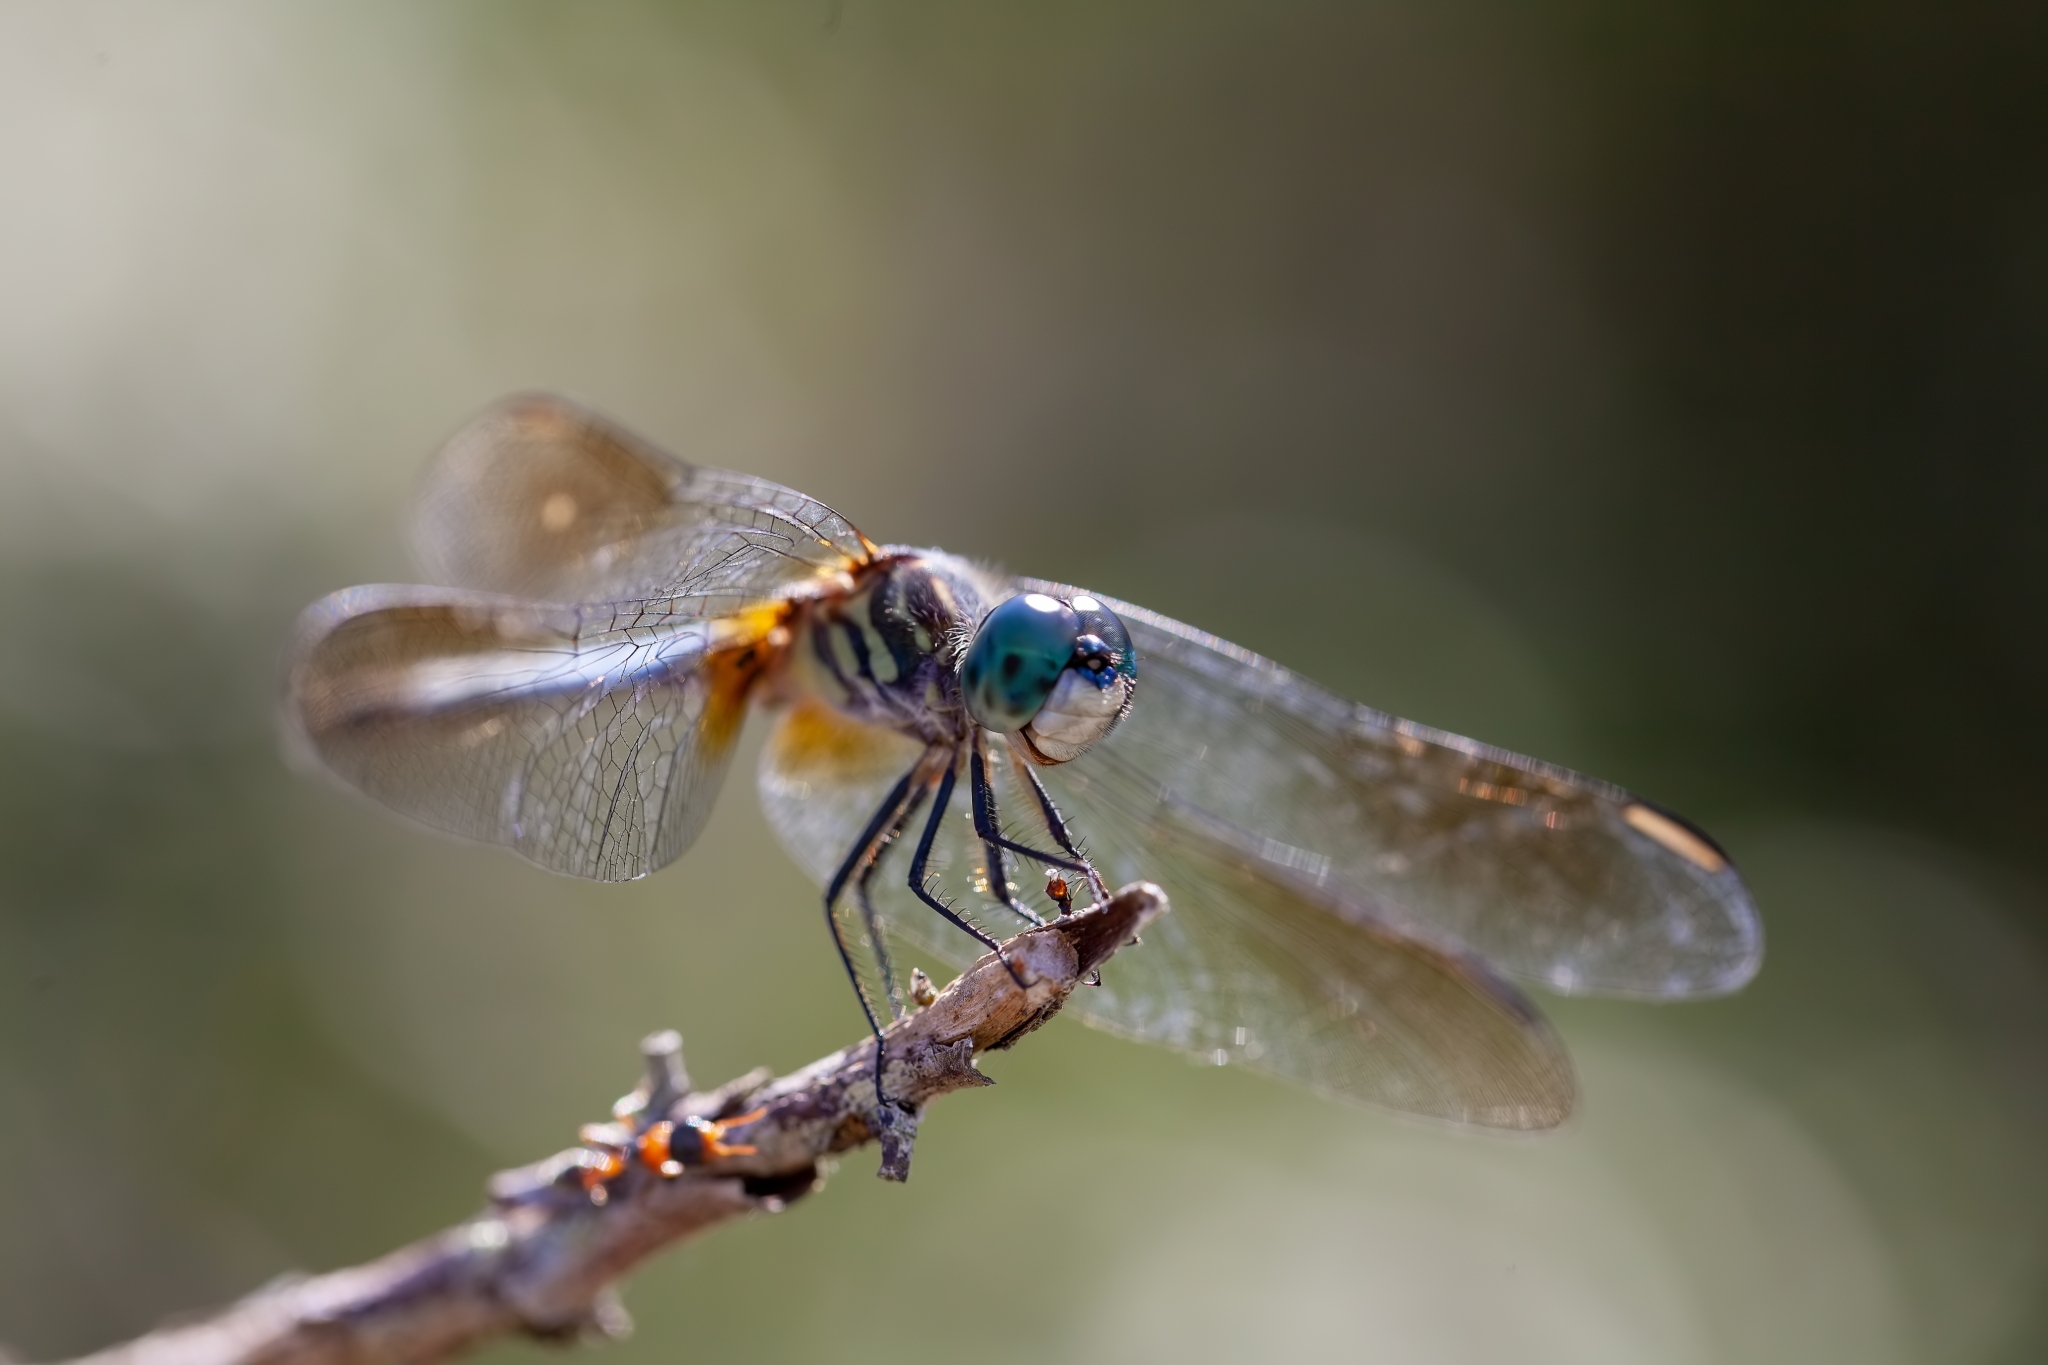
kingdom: Animalia
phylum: Arthropoda
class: Insecta
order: Odonata
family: Libellulidae
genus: Pachydiplax
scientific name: Pachydiplax longipennis
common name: Blue dasher
